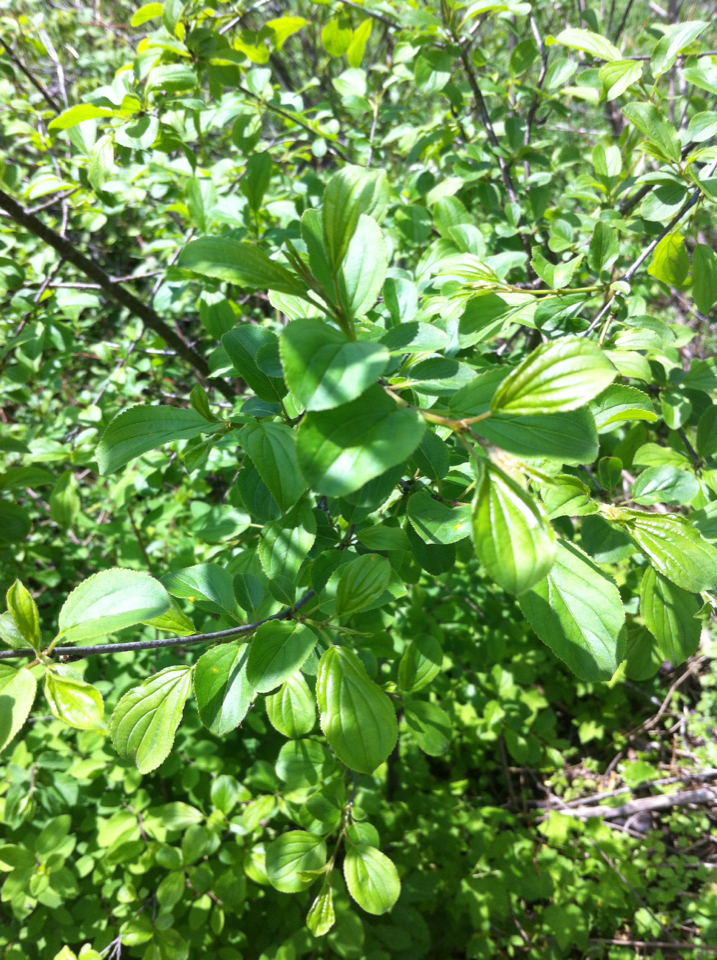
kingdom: Plantae
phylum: Tracheophyta
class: Magnoliopsida
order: Rosales
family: Rhamnaceae
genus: Rhamnus
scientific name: Rhamnus cathartica
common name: Common buckthorn
